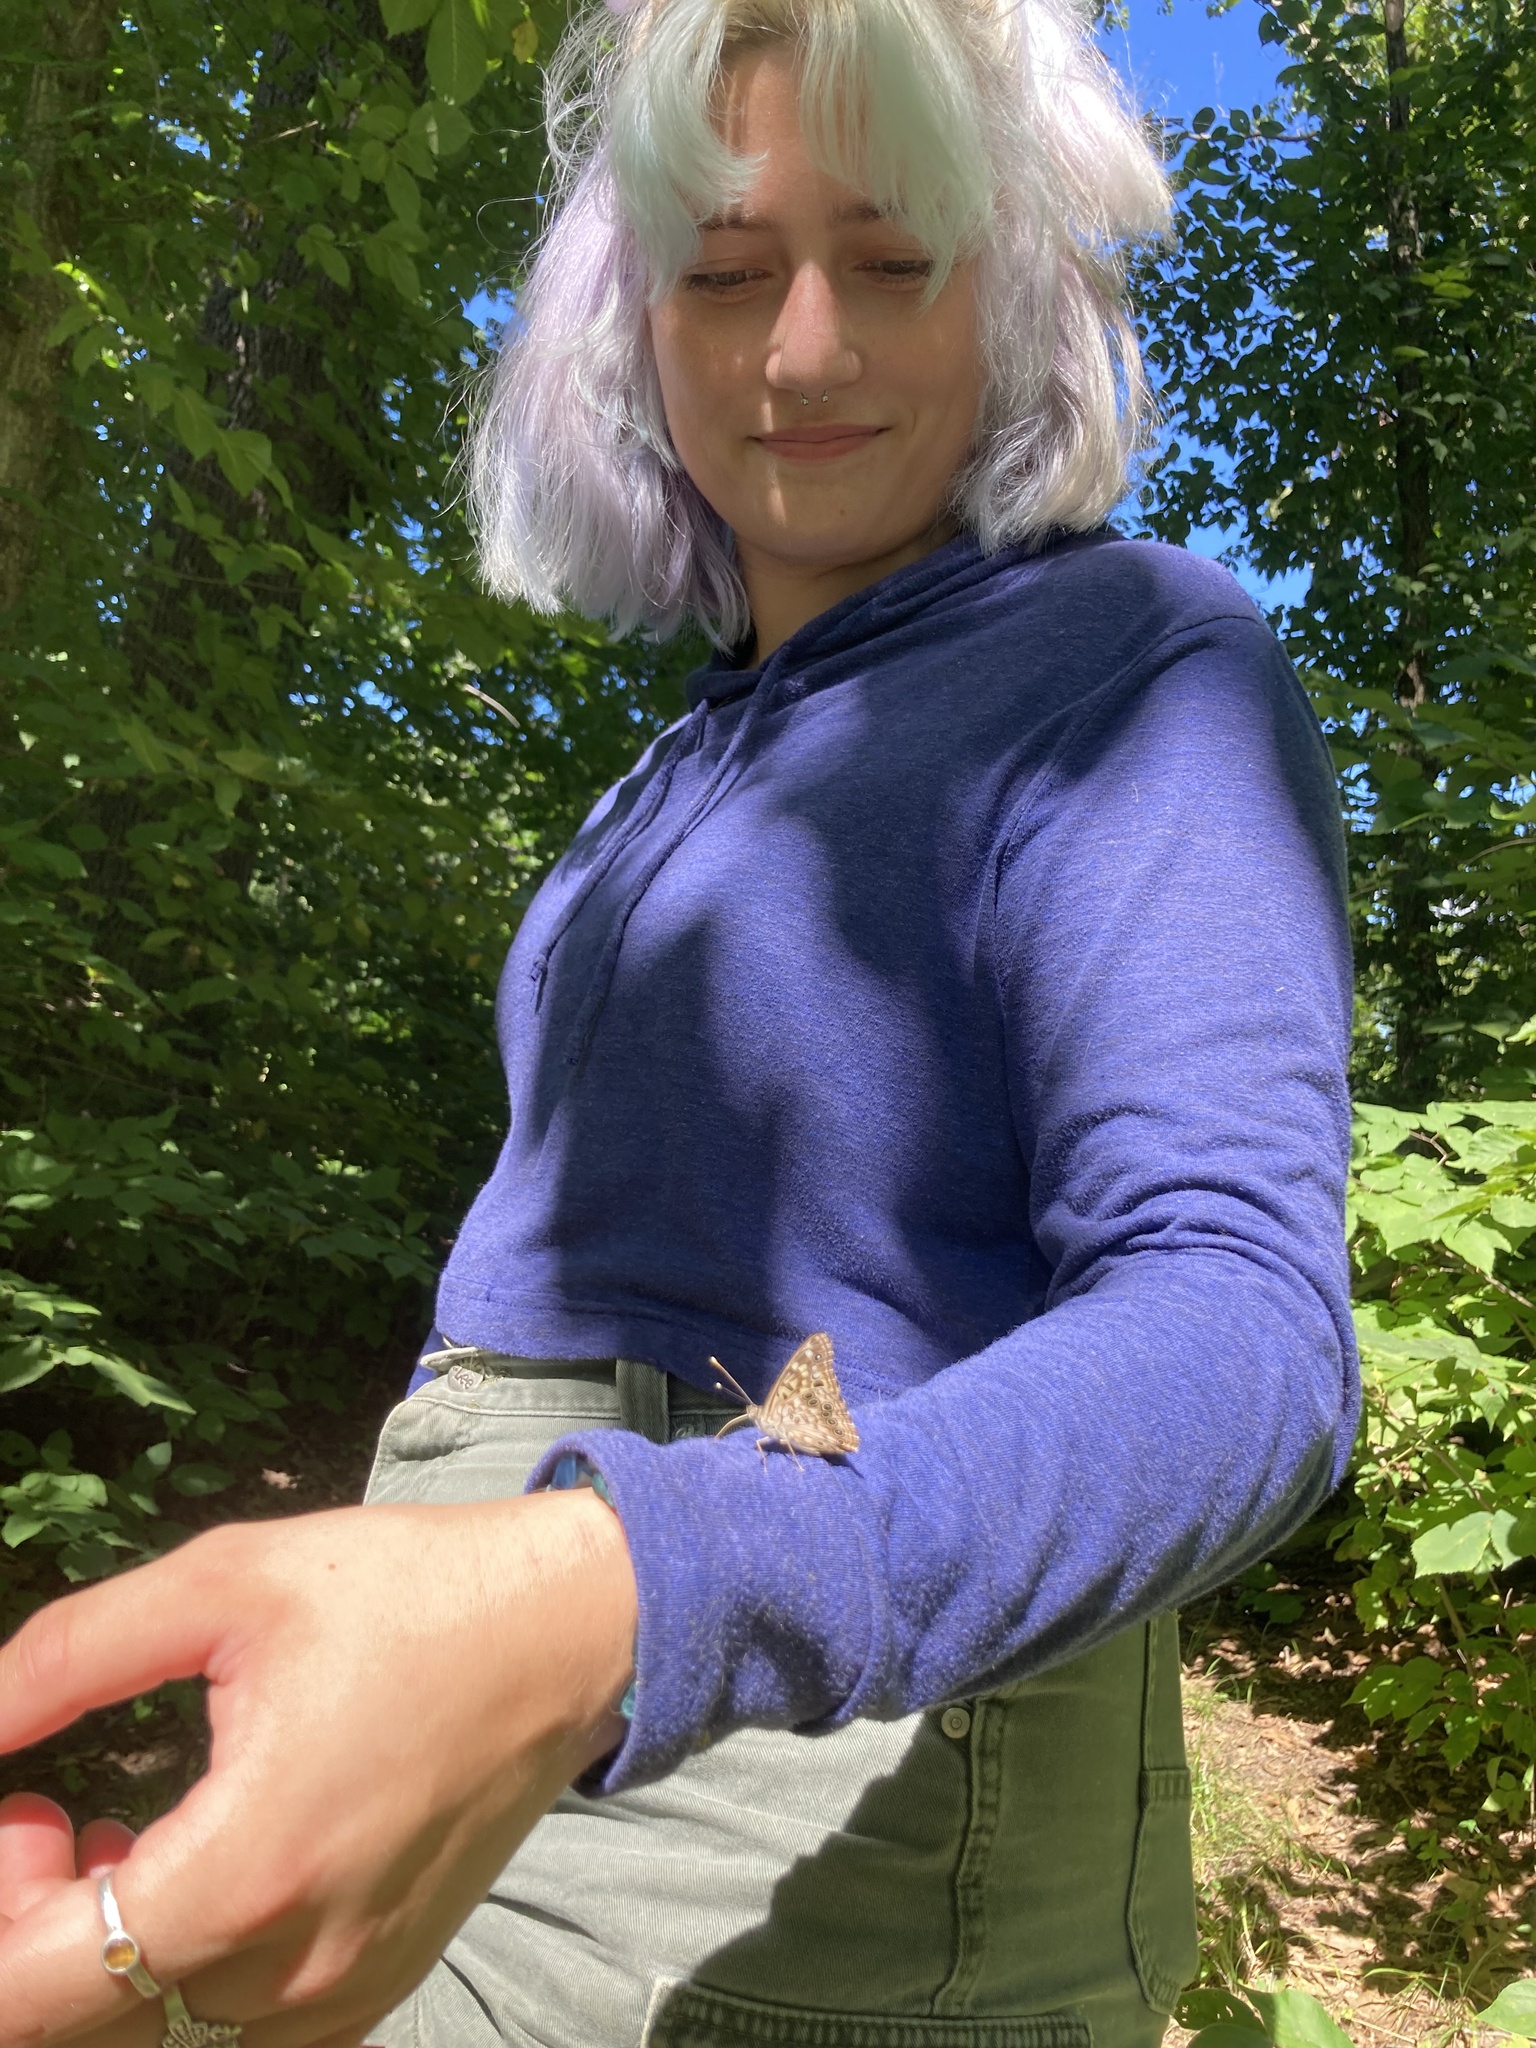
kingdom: Animalia
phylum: Arthropoda
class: Insecta
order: Lepidoptera
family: Nymphalidae
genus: Asterocampa
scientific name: Asterocampa celtis
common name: Hackberry emperor
